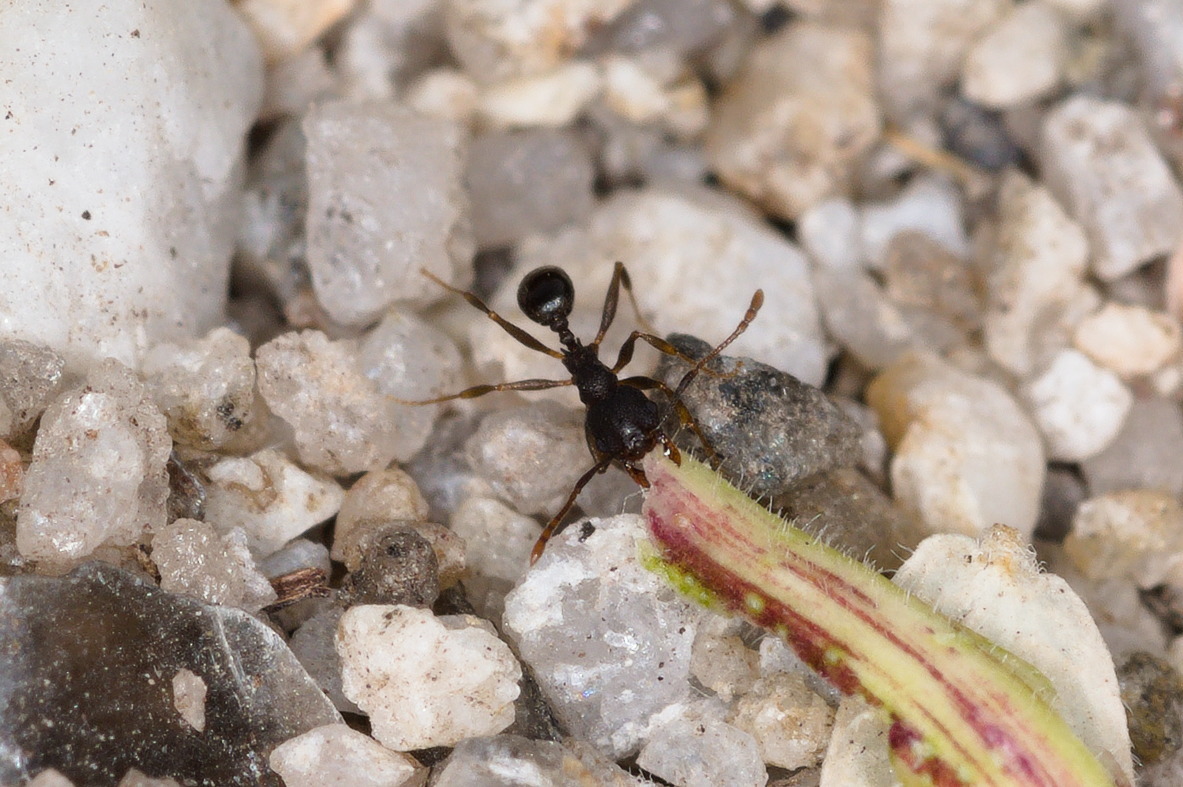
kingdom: Animalia
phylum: Arthropoda
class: Insecta
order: Hymenoptera
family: Formicidae
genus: Pheidole
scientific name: Pheidole
